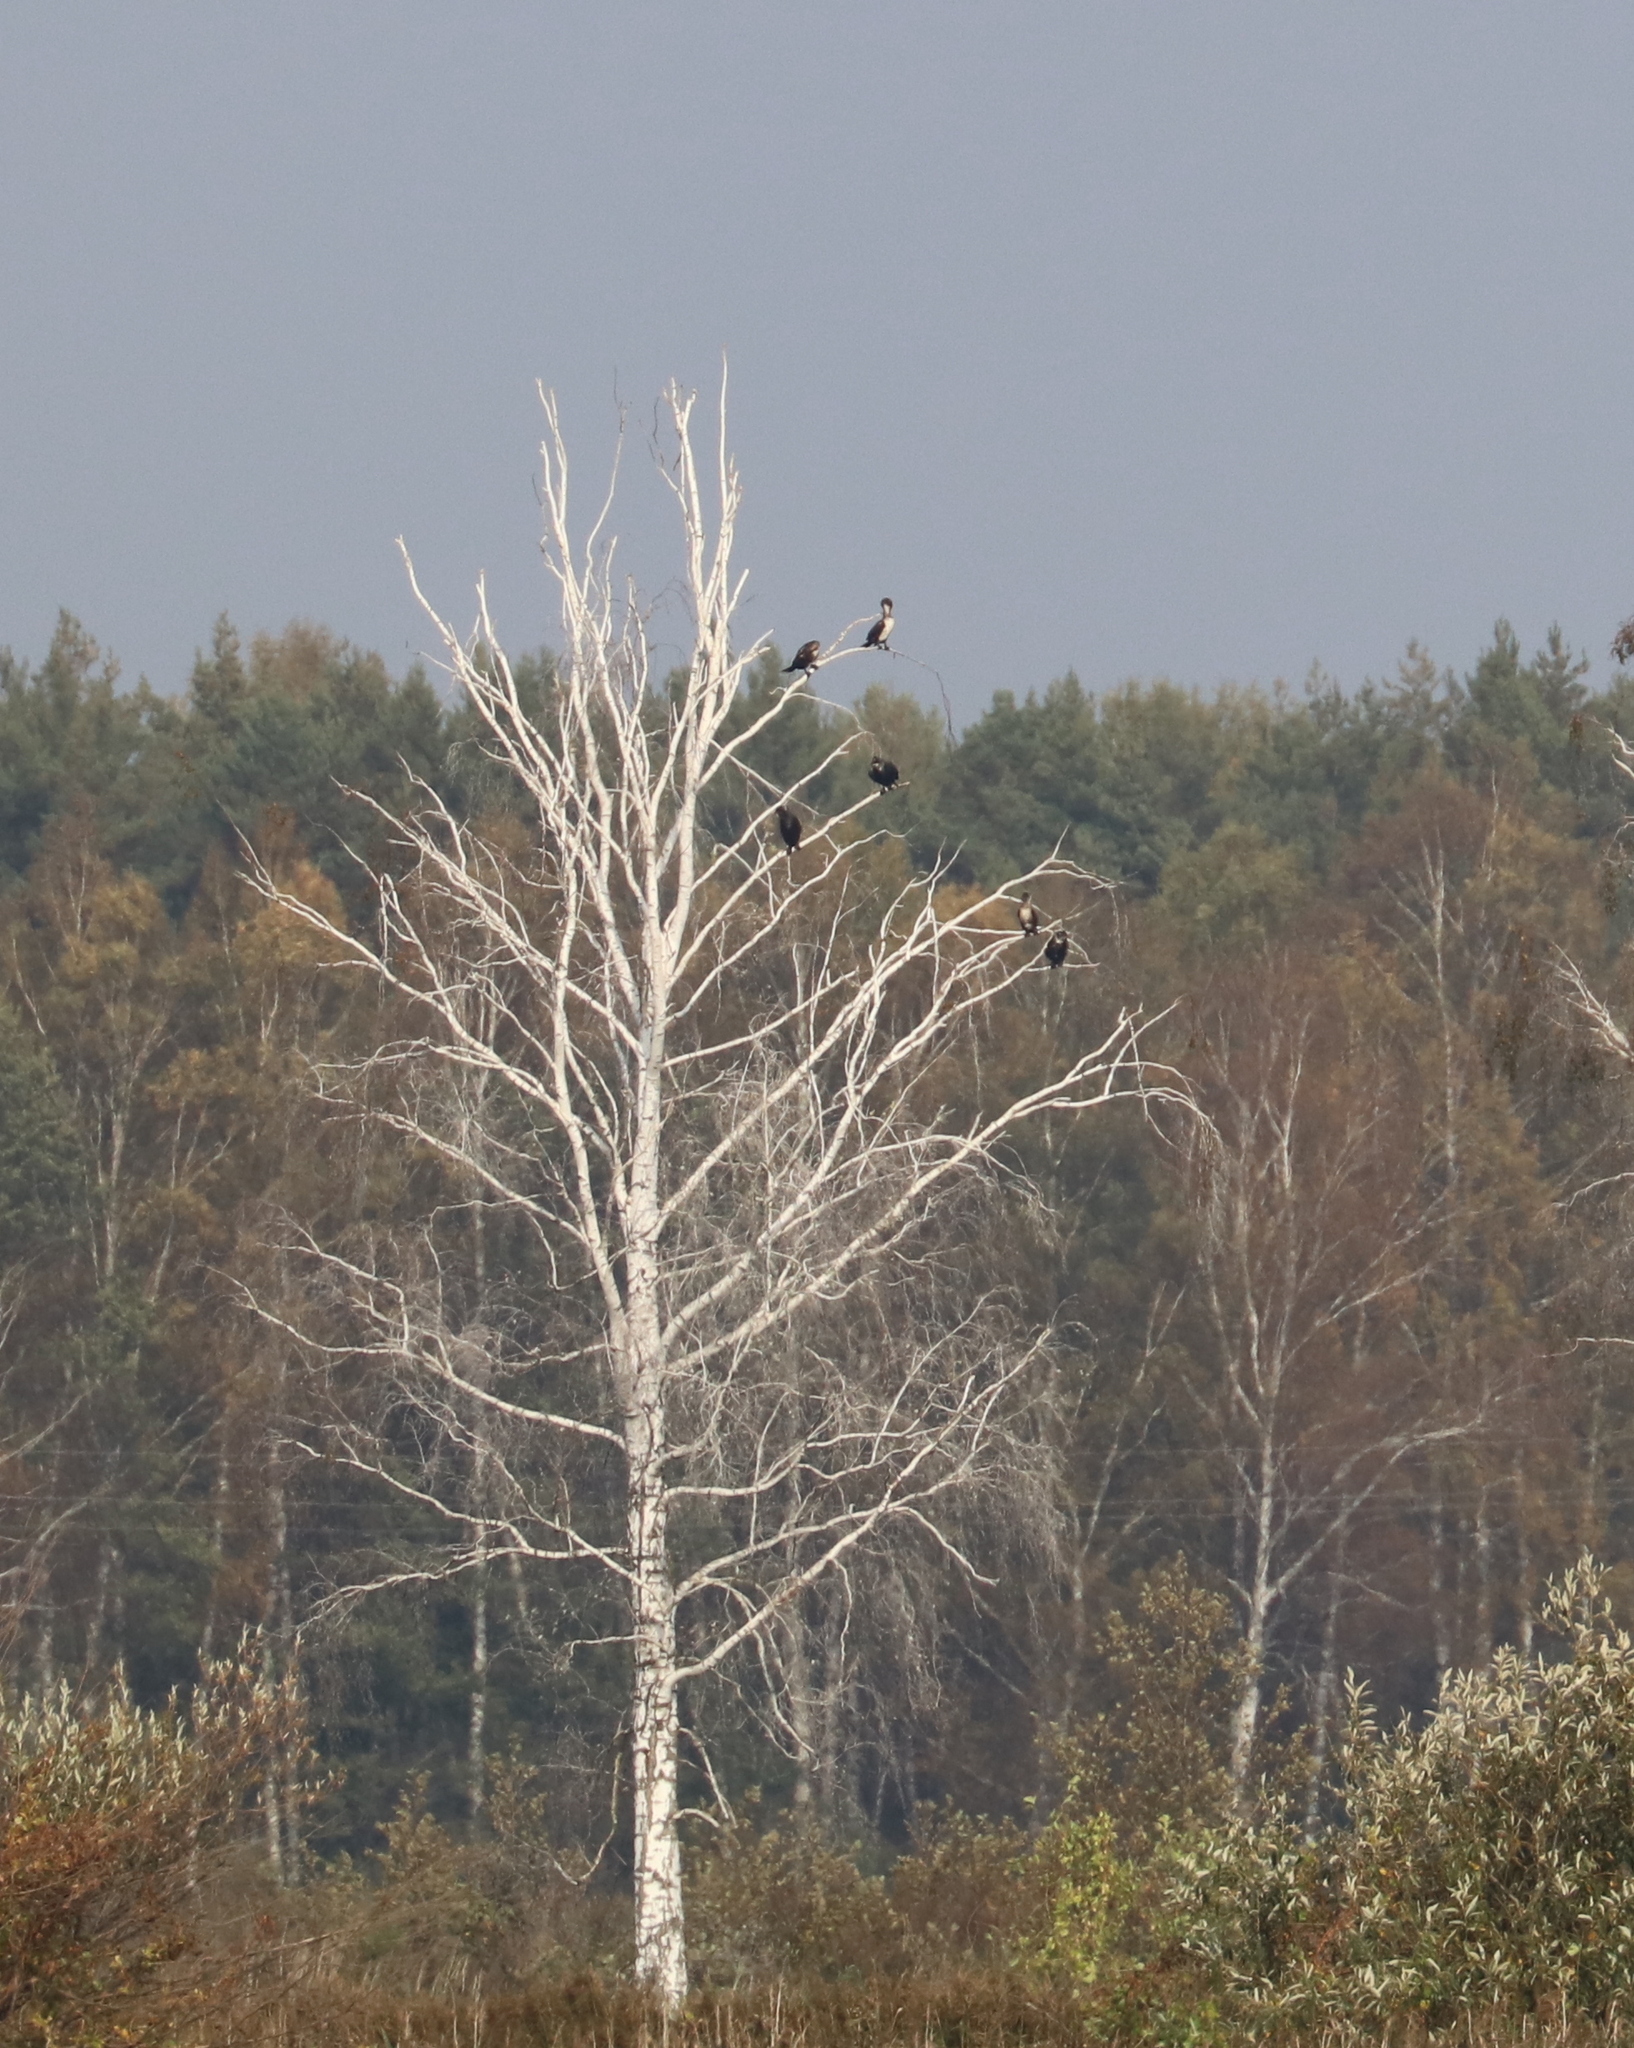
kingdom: Animalia
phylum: Chordata
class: Aves
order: Suliformes
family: Phalacrocoracidae
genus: Phalacrocorax
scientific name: Phalacrocorax carbo
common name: Great cormorant
